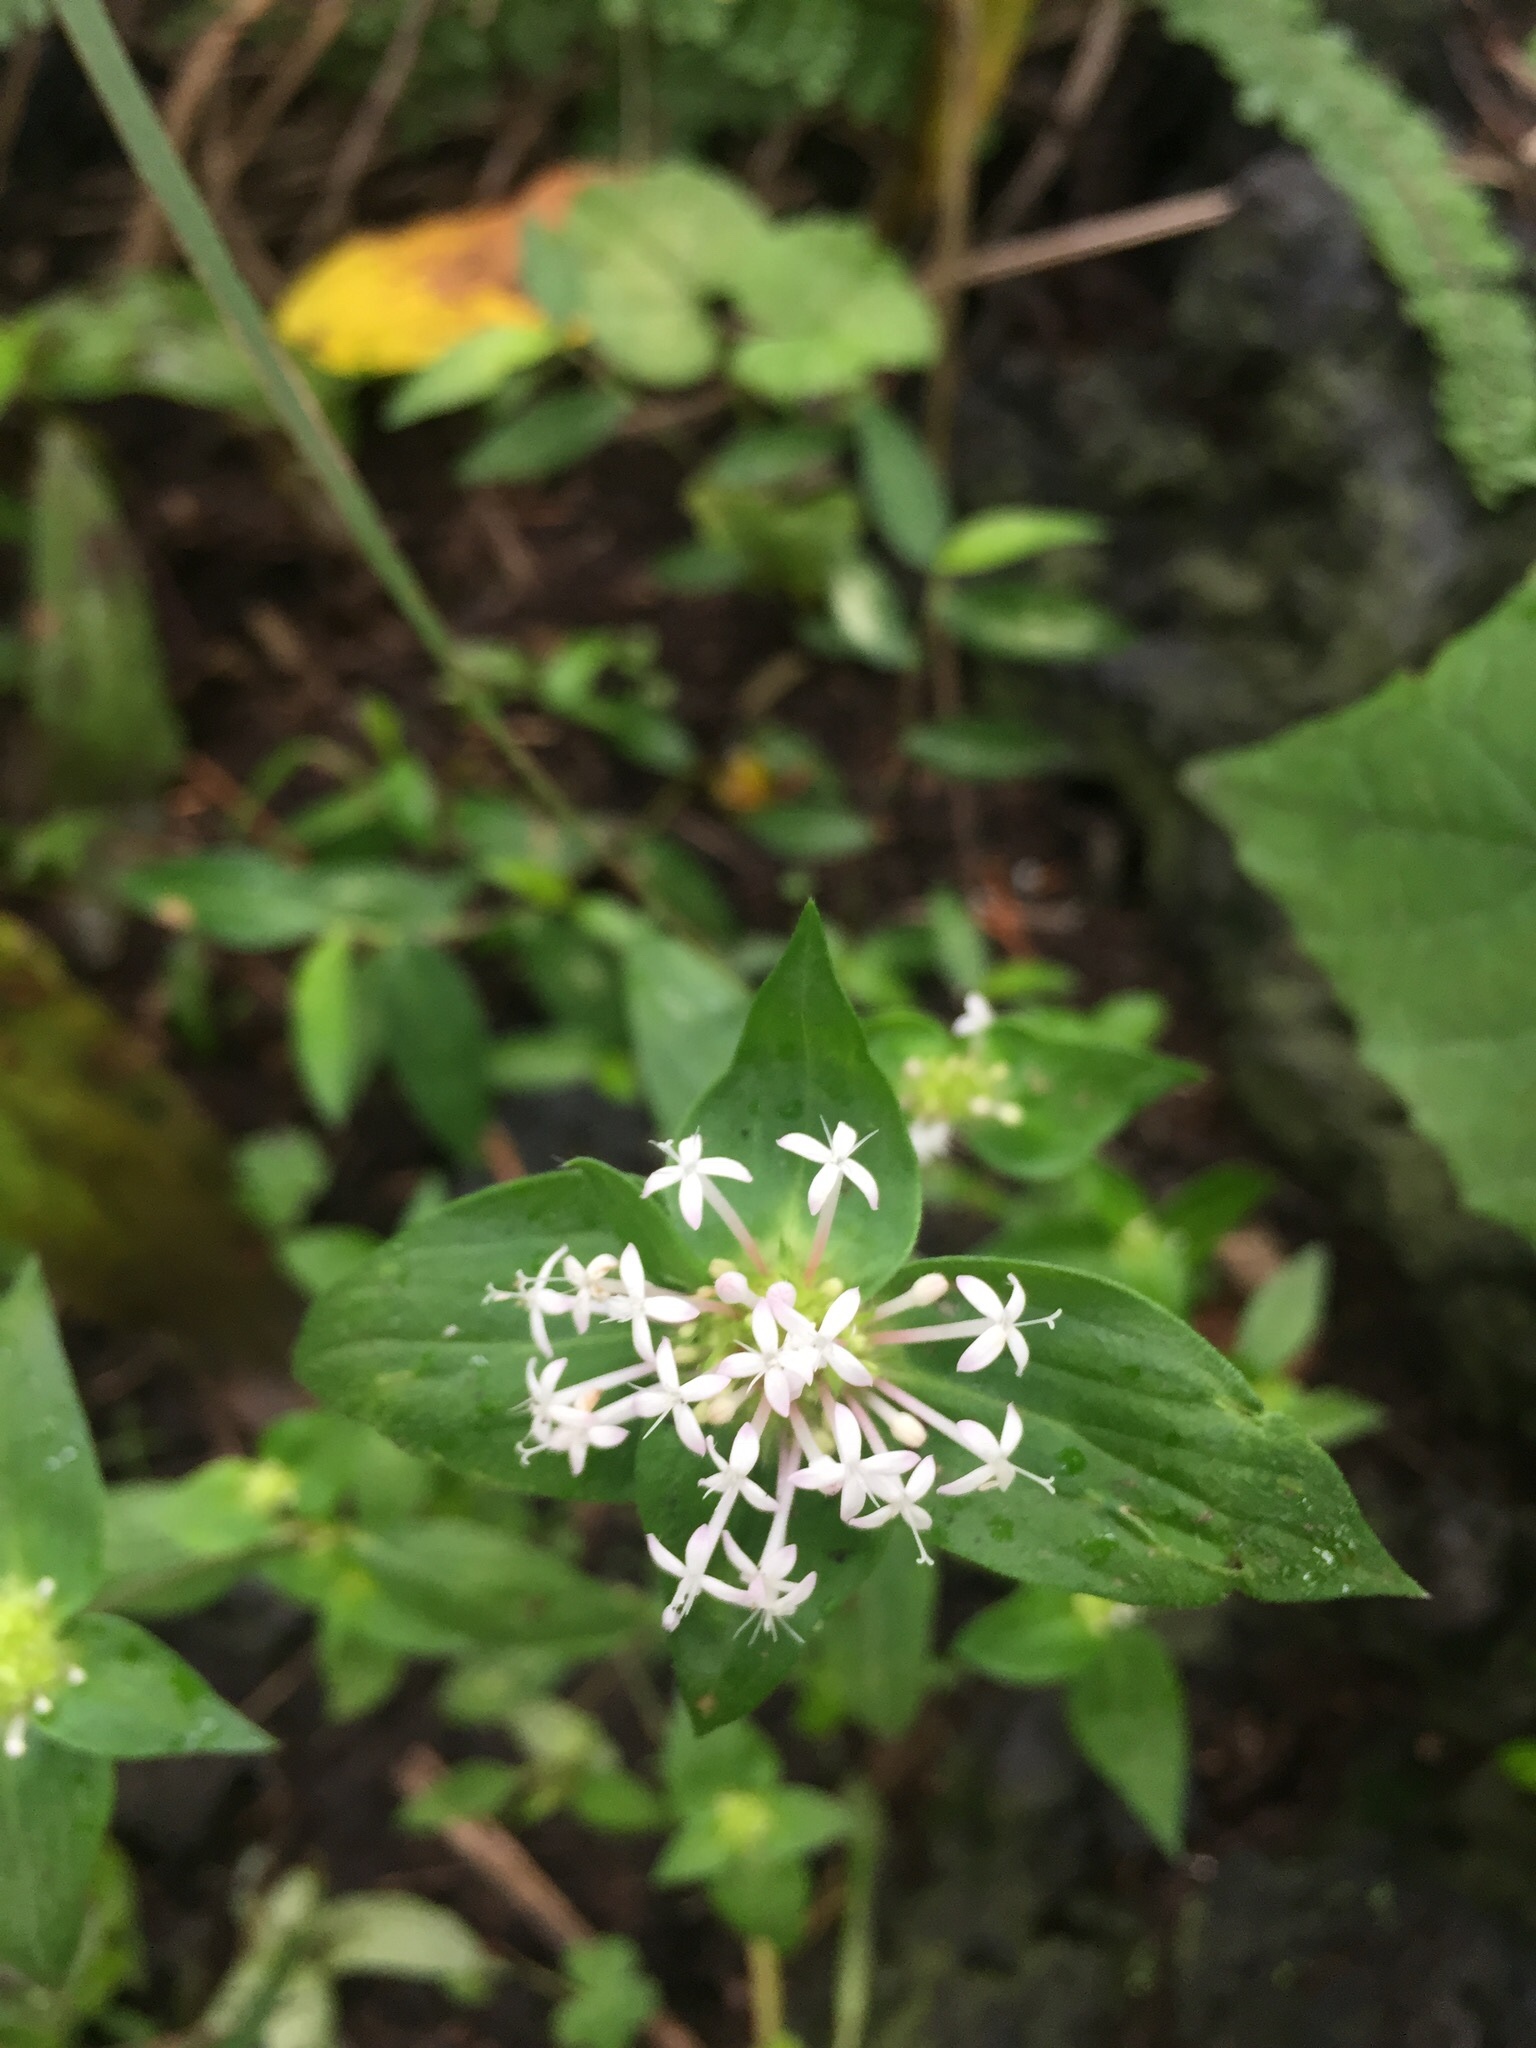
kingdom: Plantae
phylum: Tracheophyta
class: Magnoliopsida
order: Gentianales
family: Rubiaceae
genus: Crusea
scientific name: Crusea longiflora
